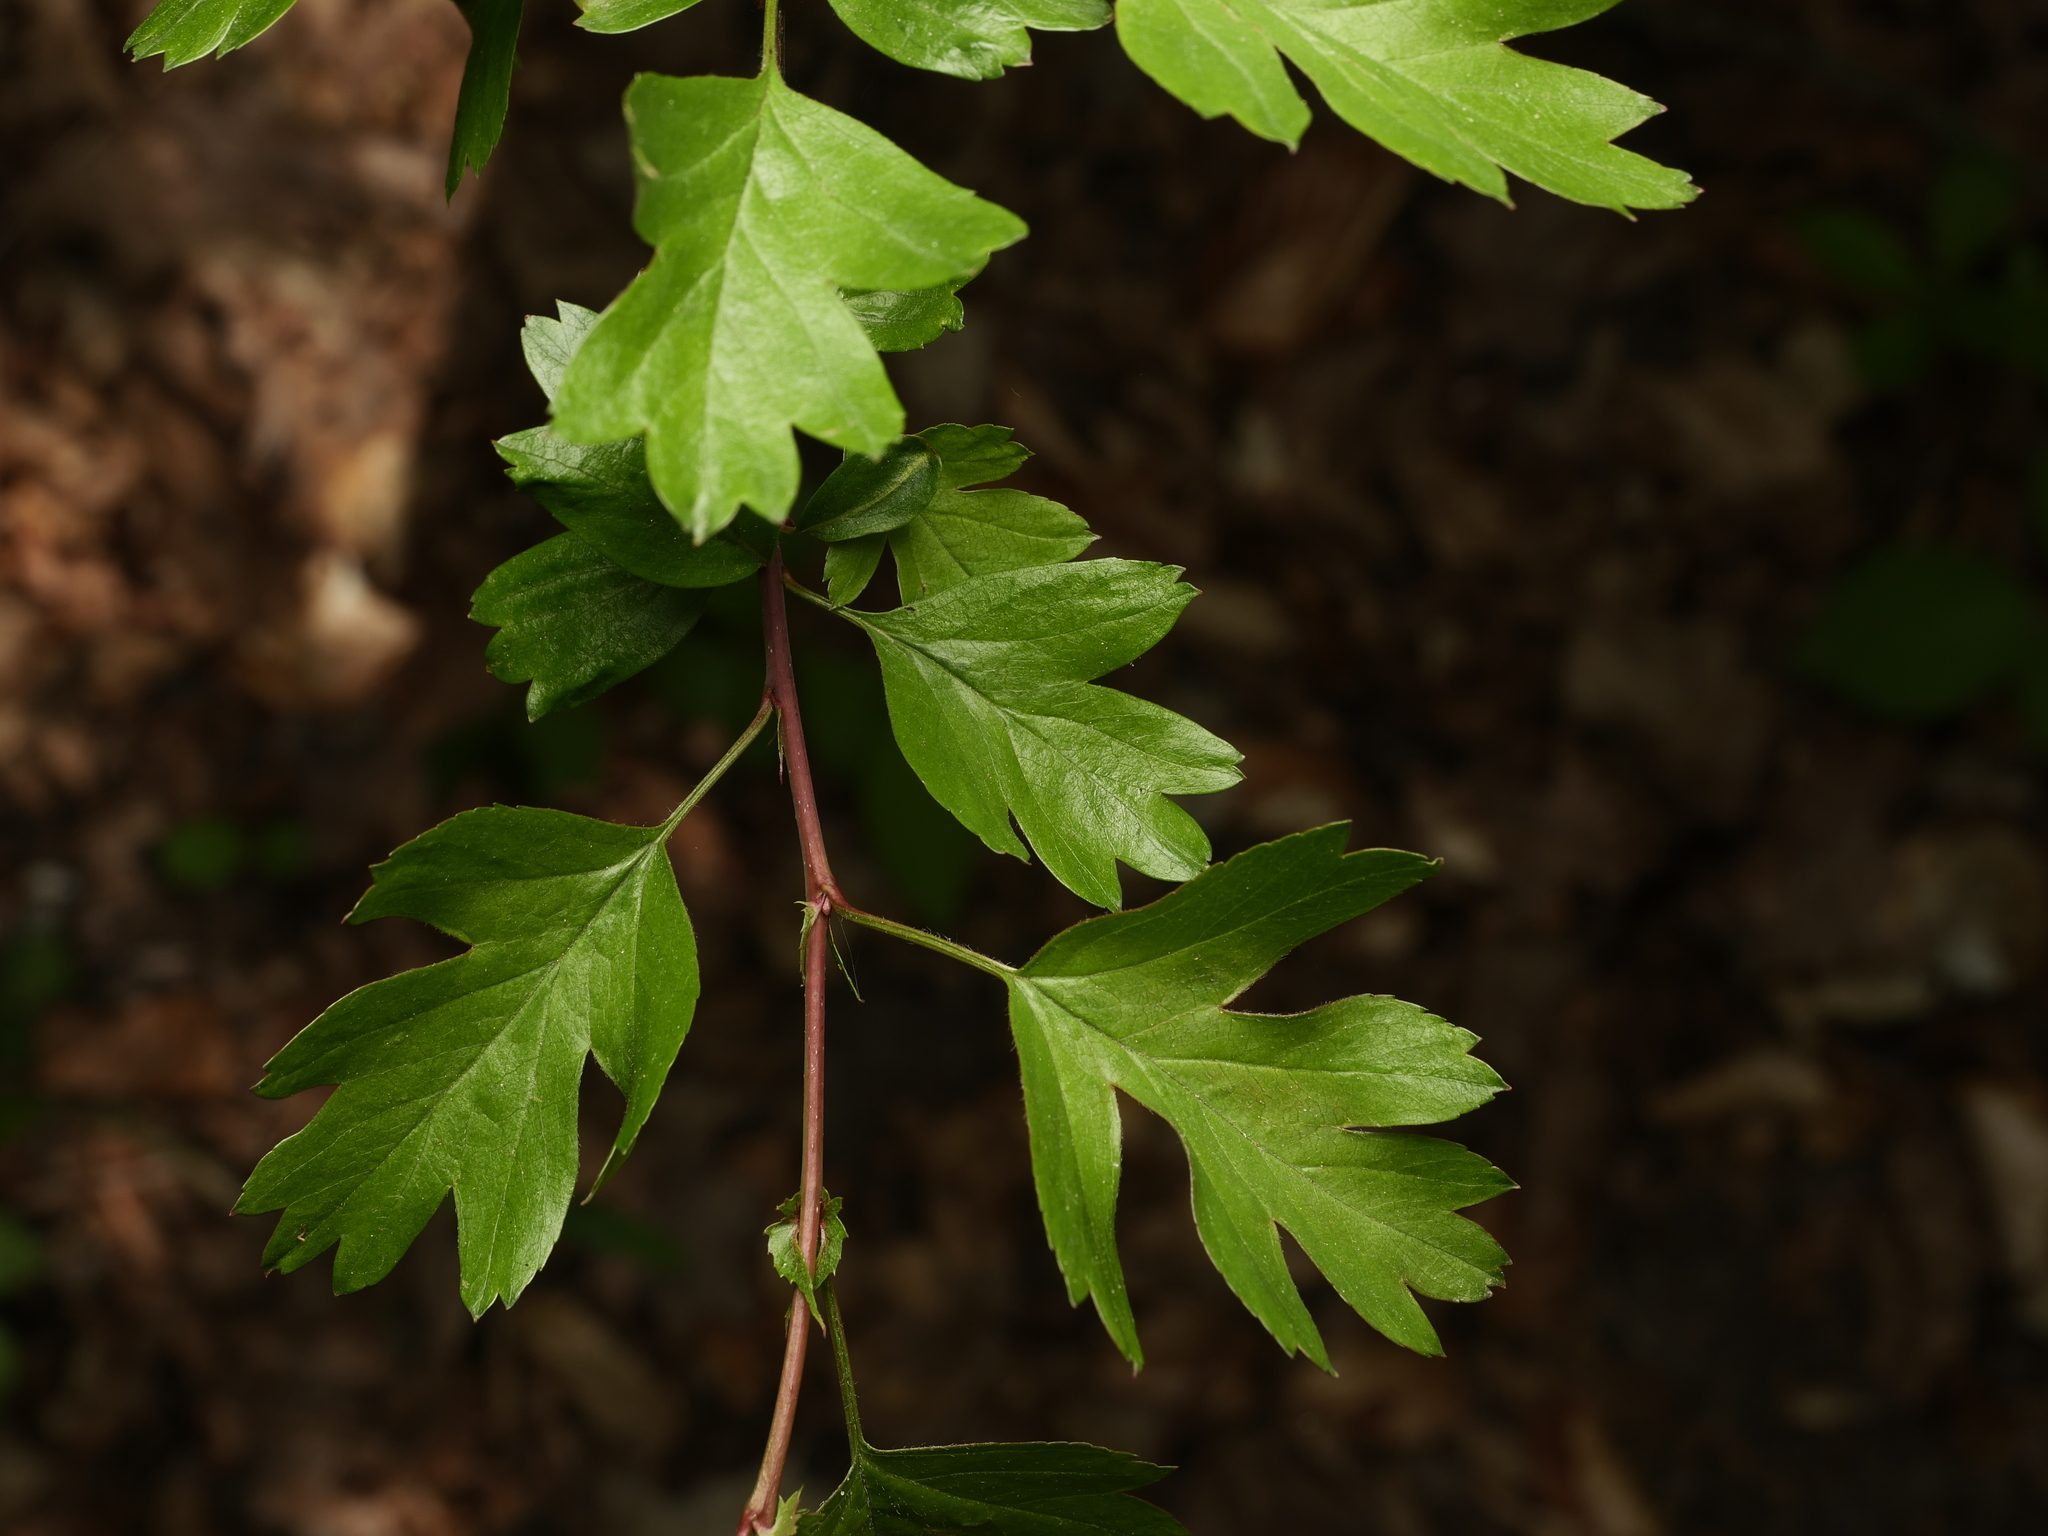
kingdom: Plantae
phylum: Tracheophyta
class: Magnoliopsida
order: Rosales
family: Rosaceae
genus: Crataegus
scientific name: Crataegus monogyna
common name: Hawthorn
